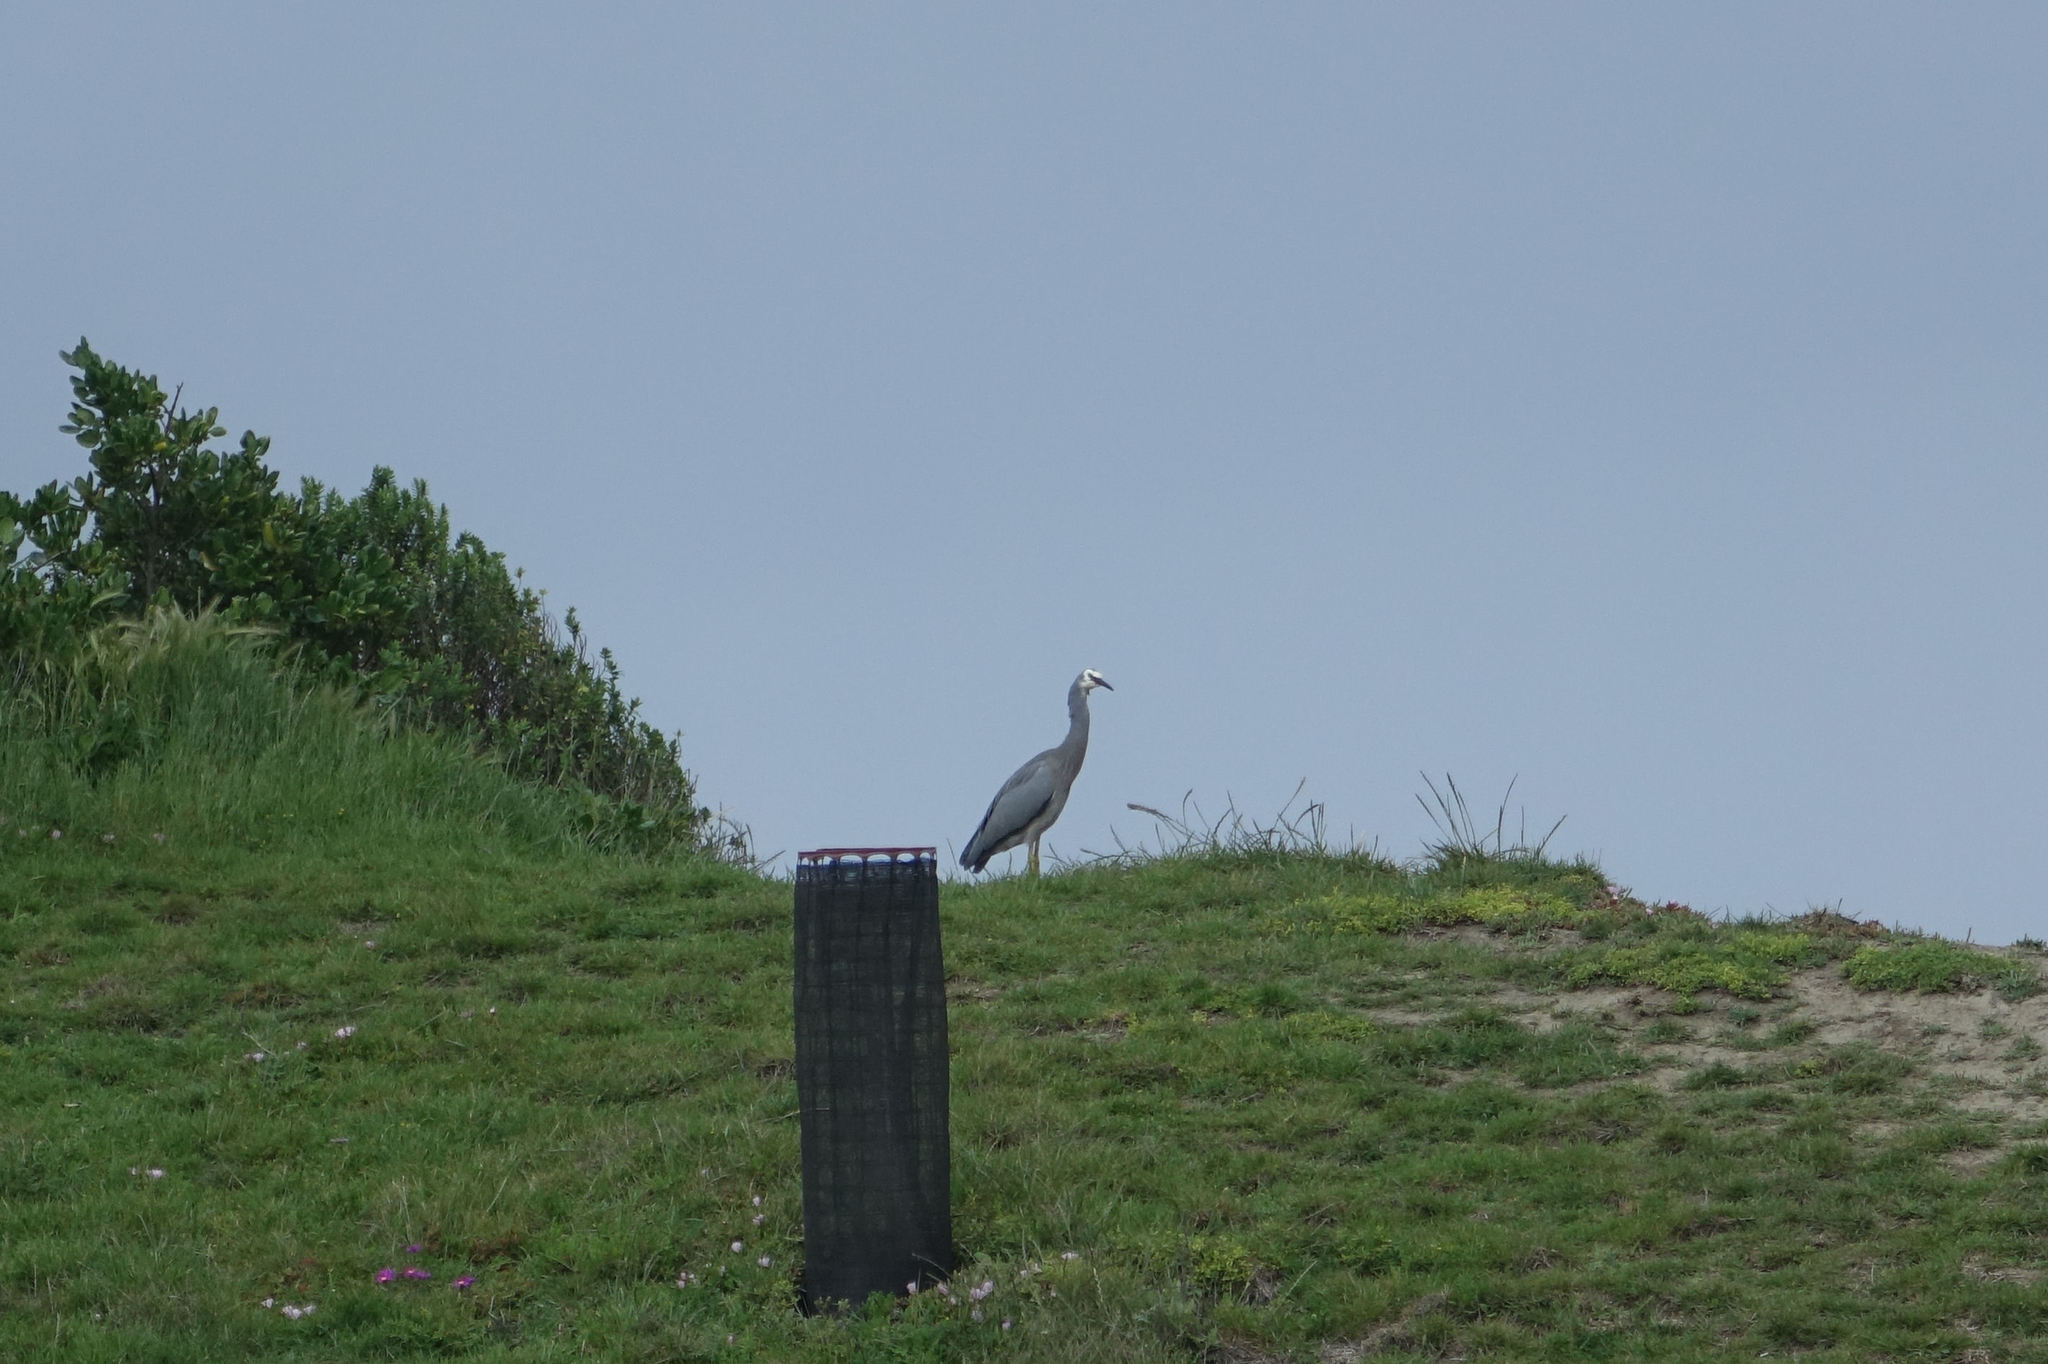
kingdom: Animalia
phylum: Chordata
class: Aves
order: Pelecaniformes
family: Ardeidae
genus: Egretta
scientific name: Egretta novaehollandiae
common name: White-faced heron
